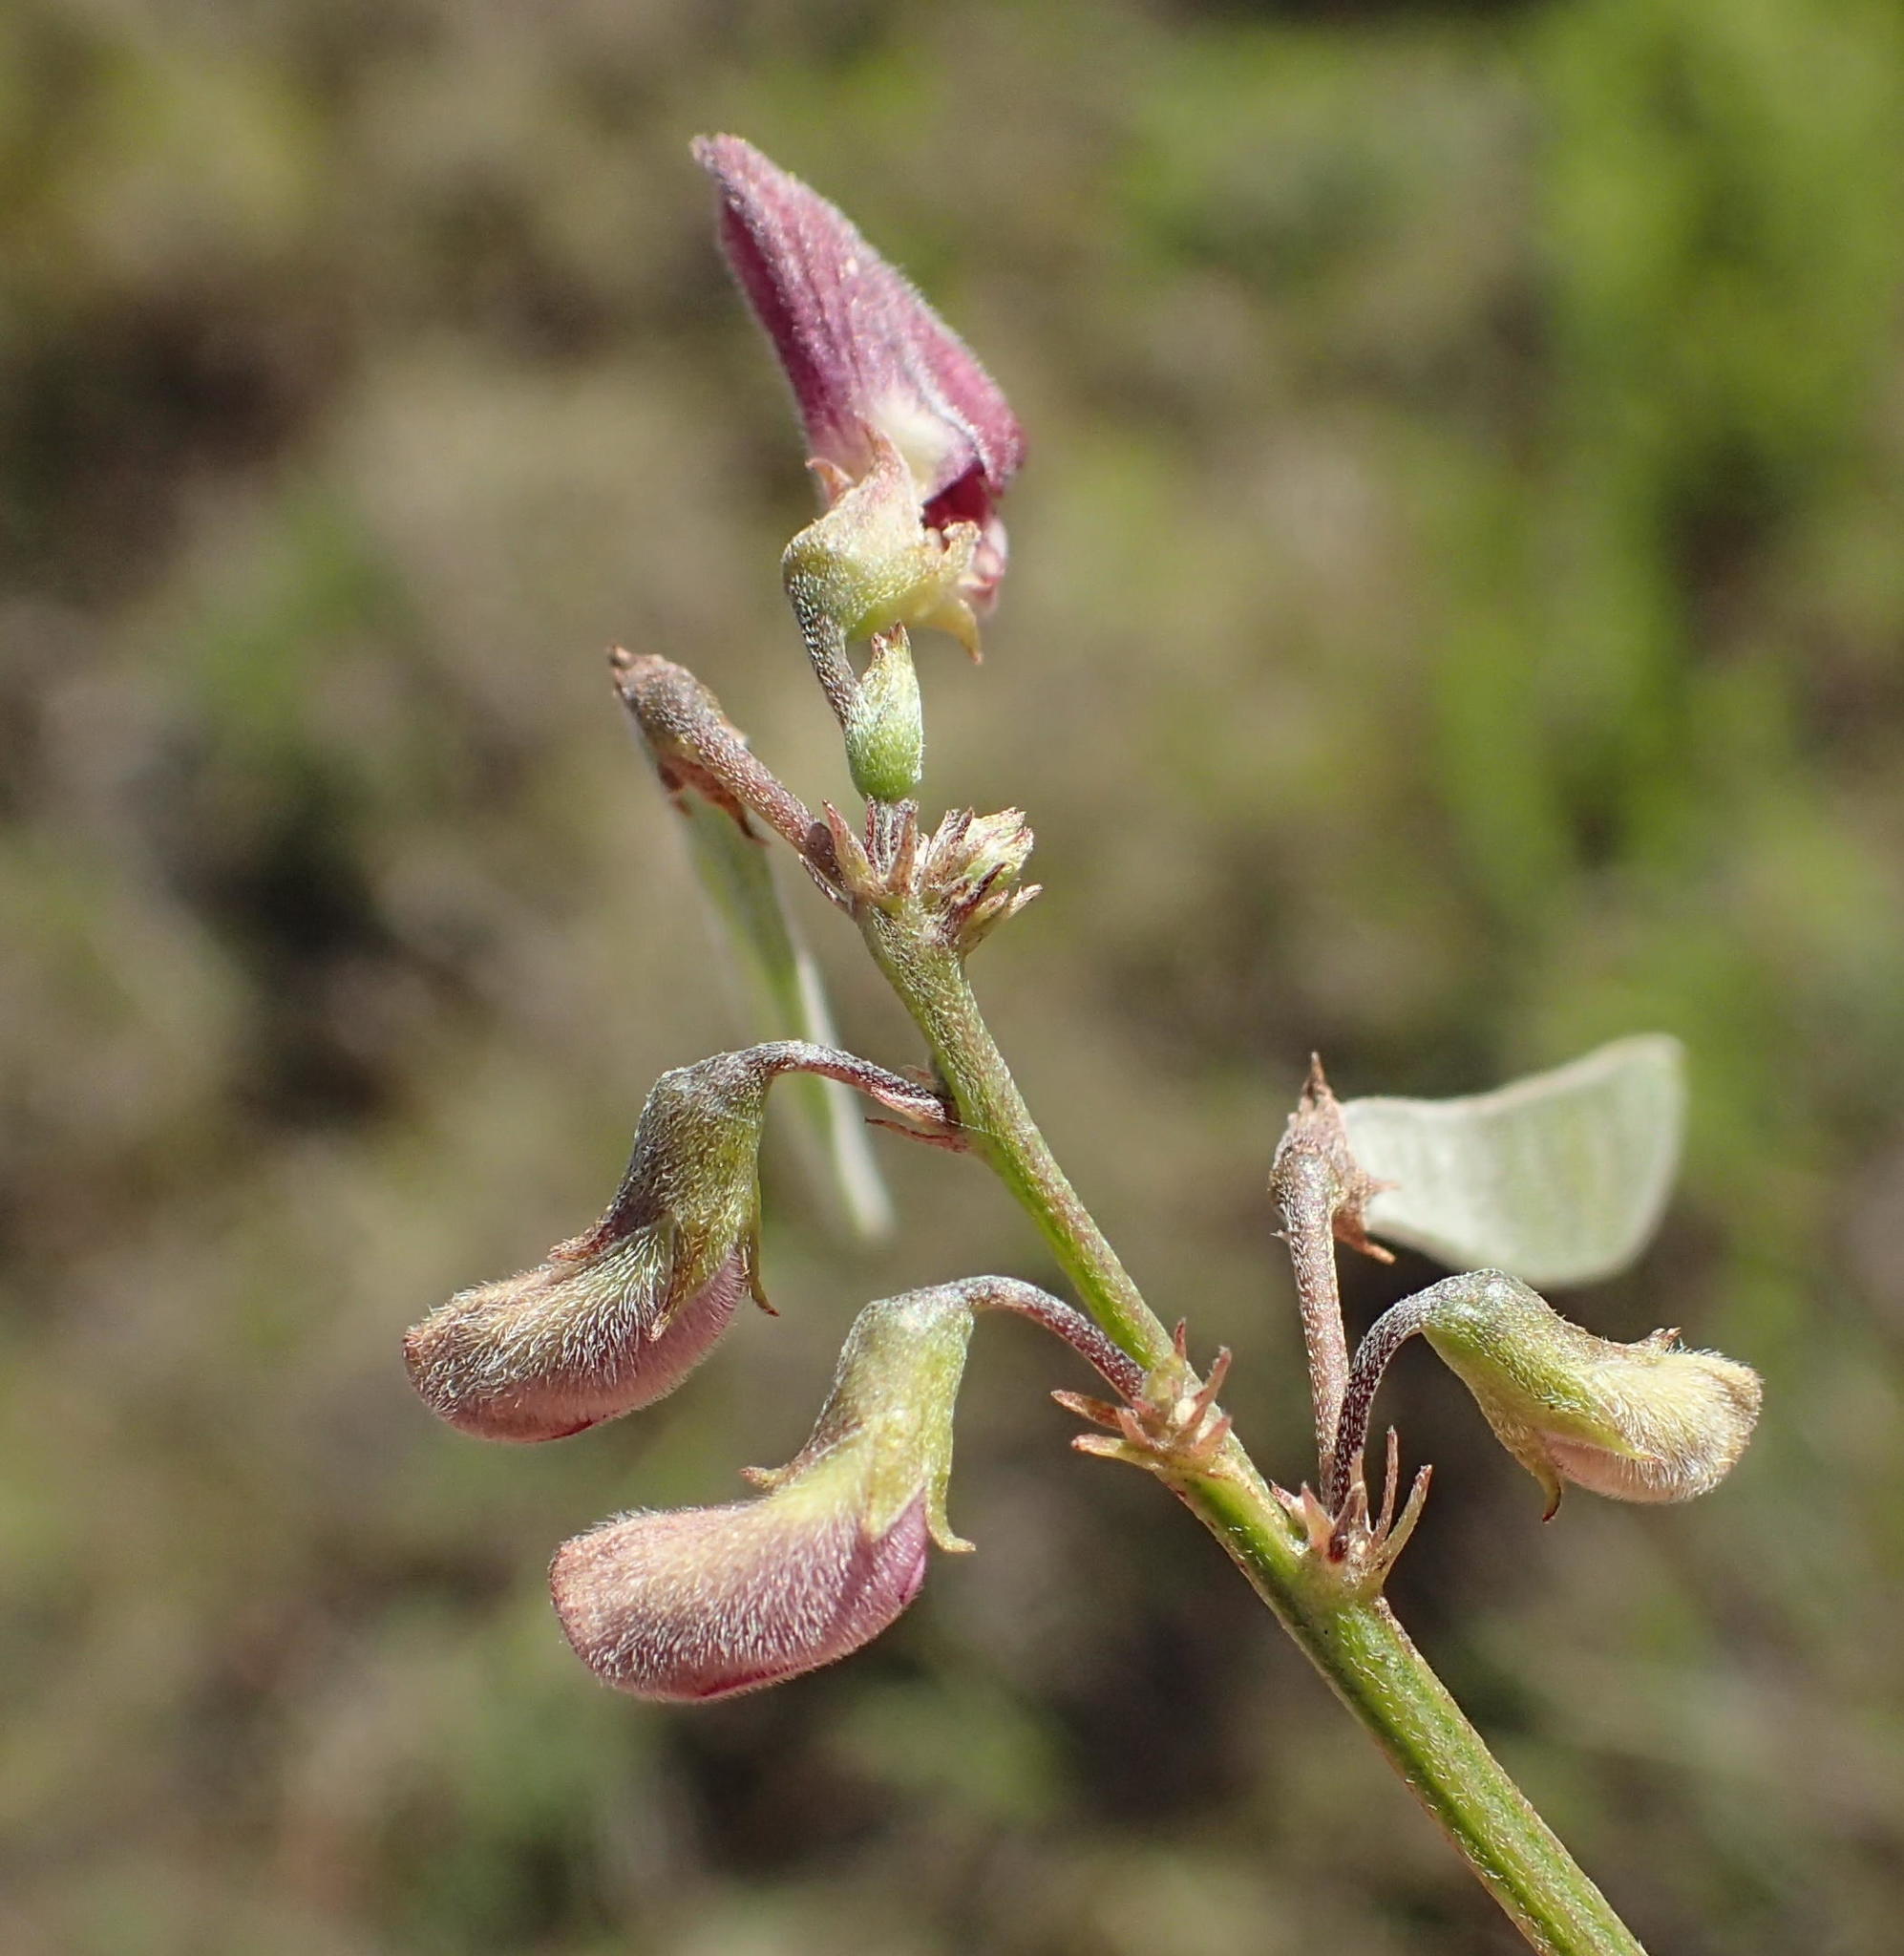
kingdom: Plantae
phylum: Tracheophyta
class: Magnoliopsida
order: Fabales
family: Fabaceae
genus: Tephrosia
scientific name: Tephrosia capensis
